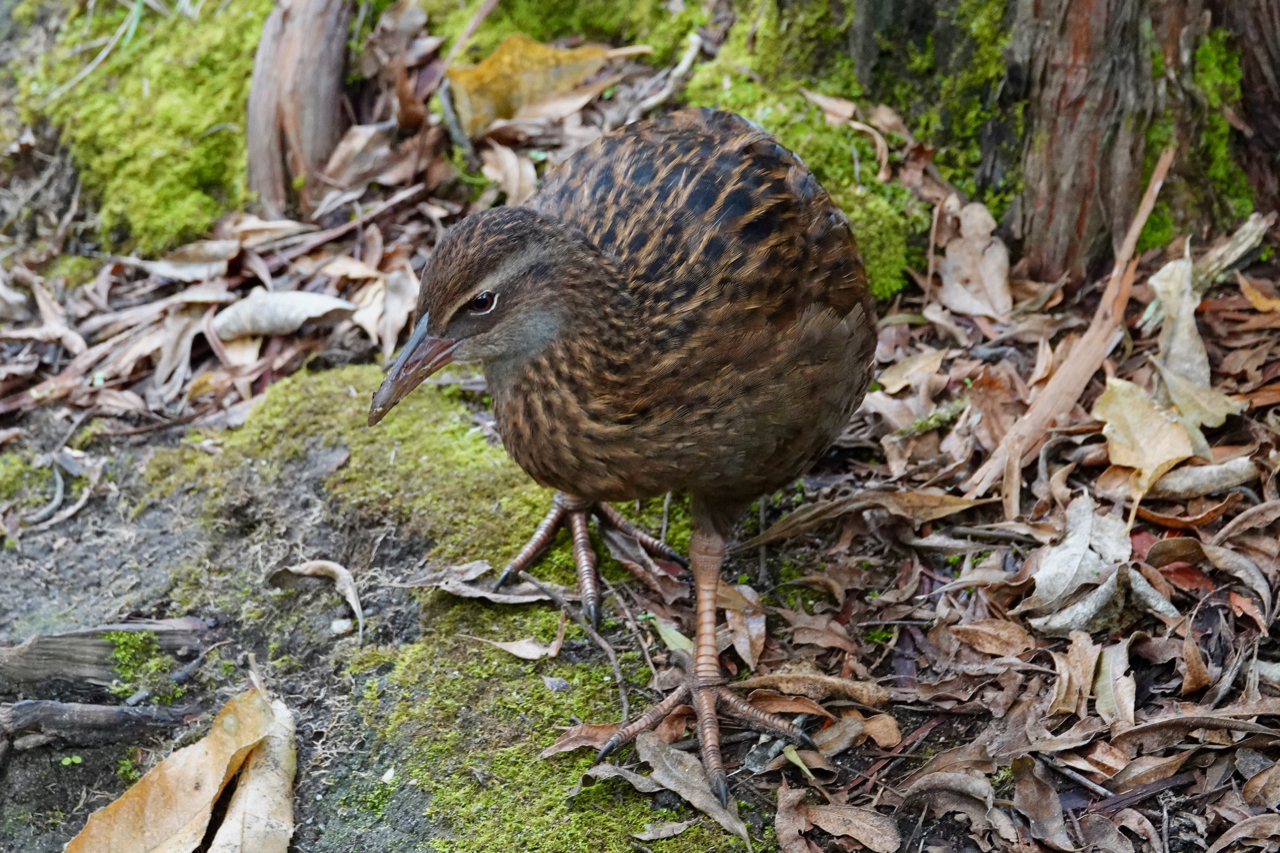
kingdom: Animalia
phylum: Chordata
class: Aves
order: Gruiformes
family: Rallidae
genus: Gallirallus
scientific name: Gallirallus australis
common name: Weka
